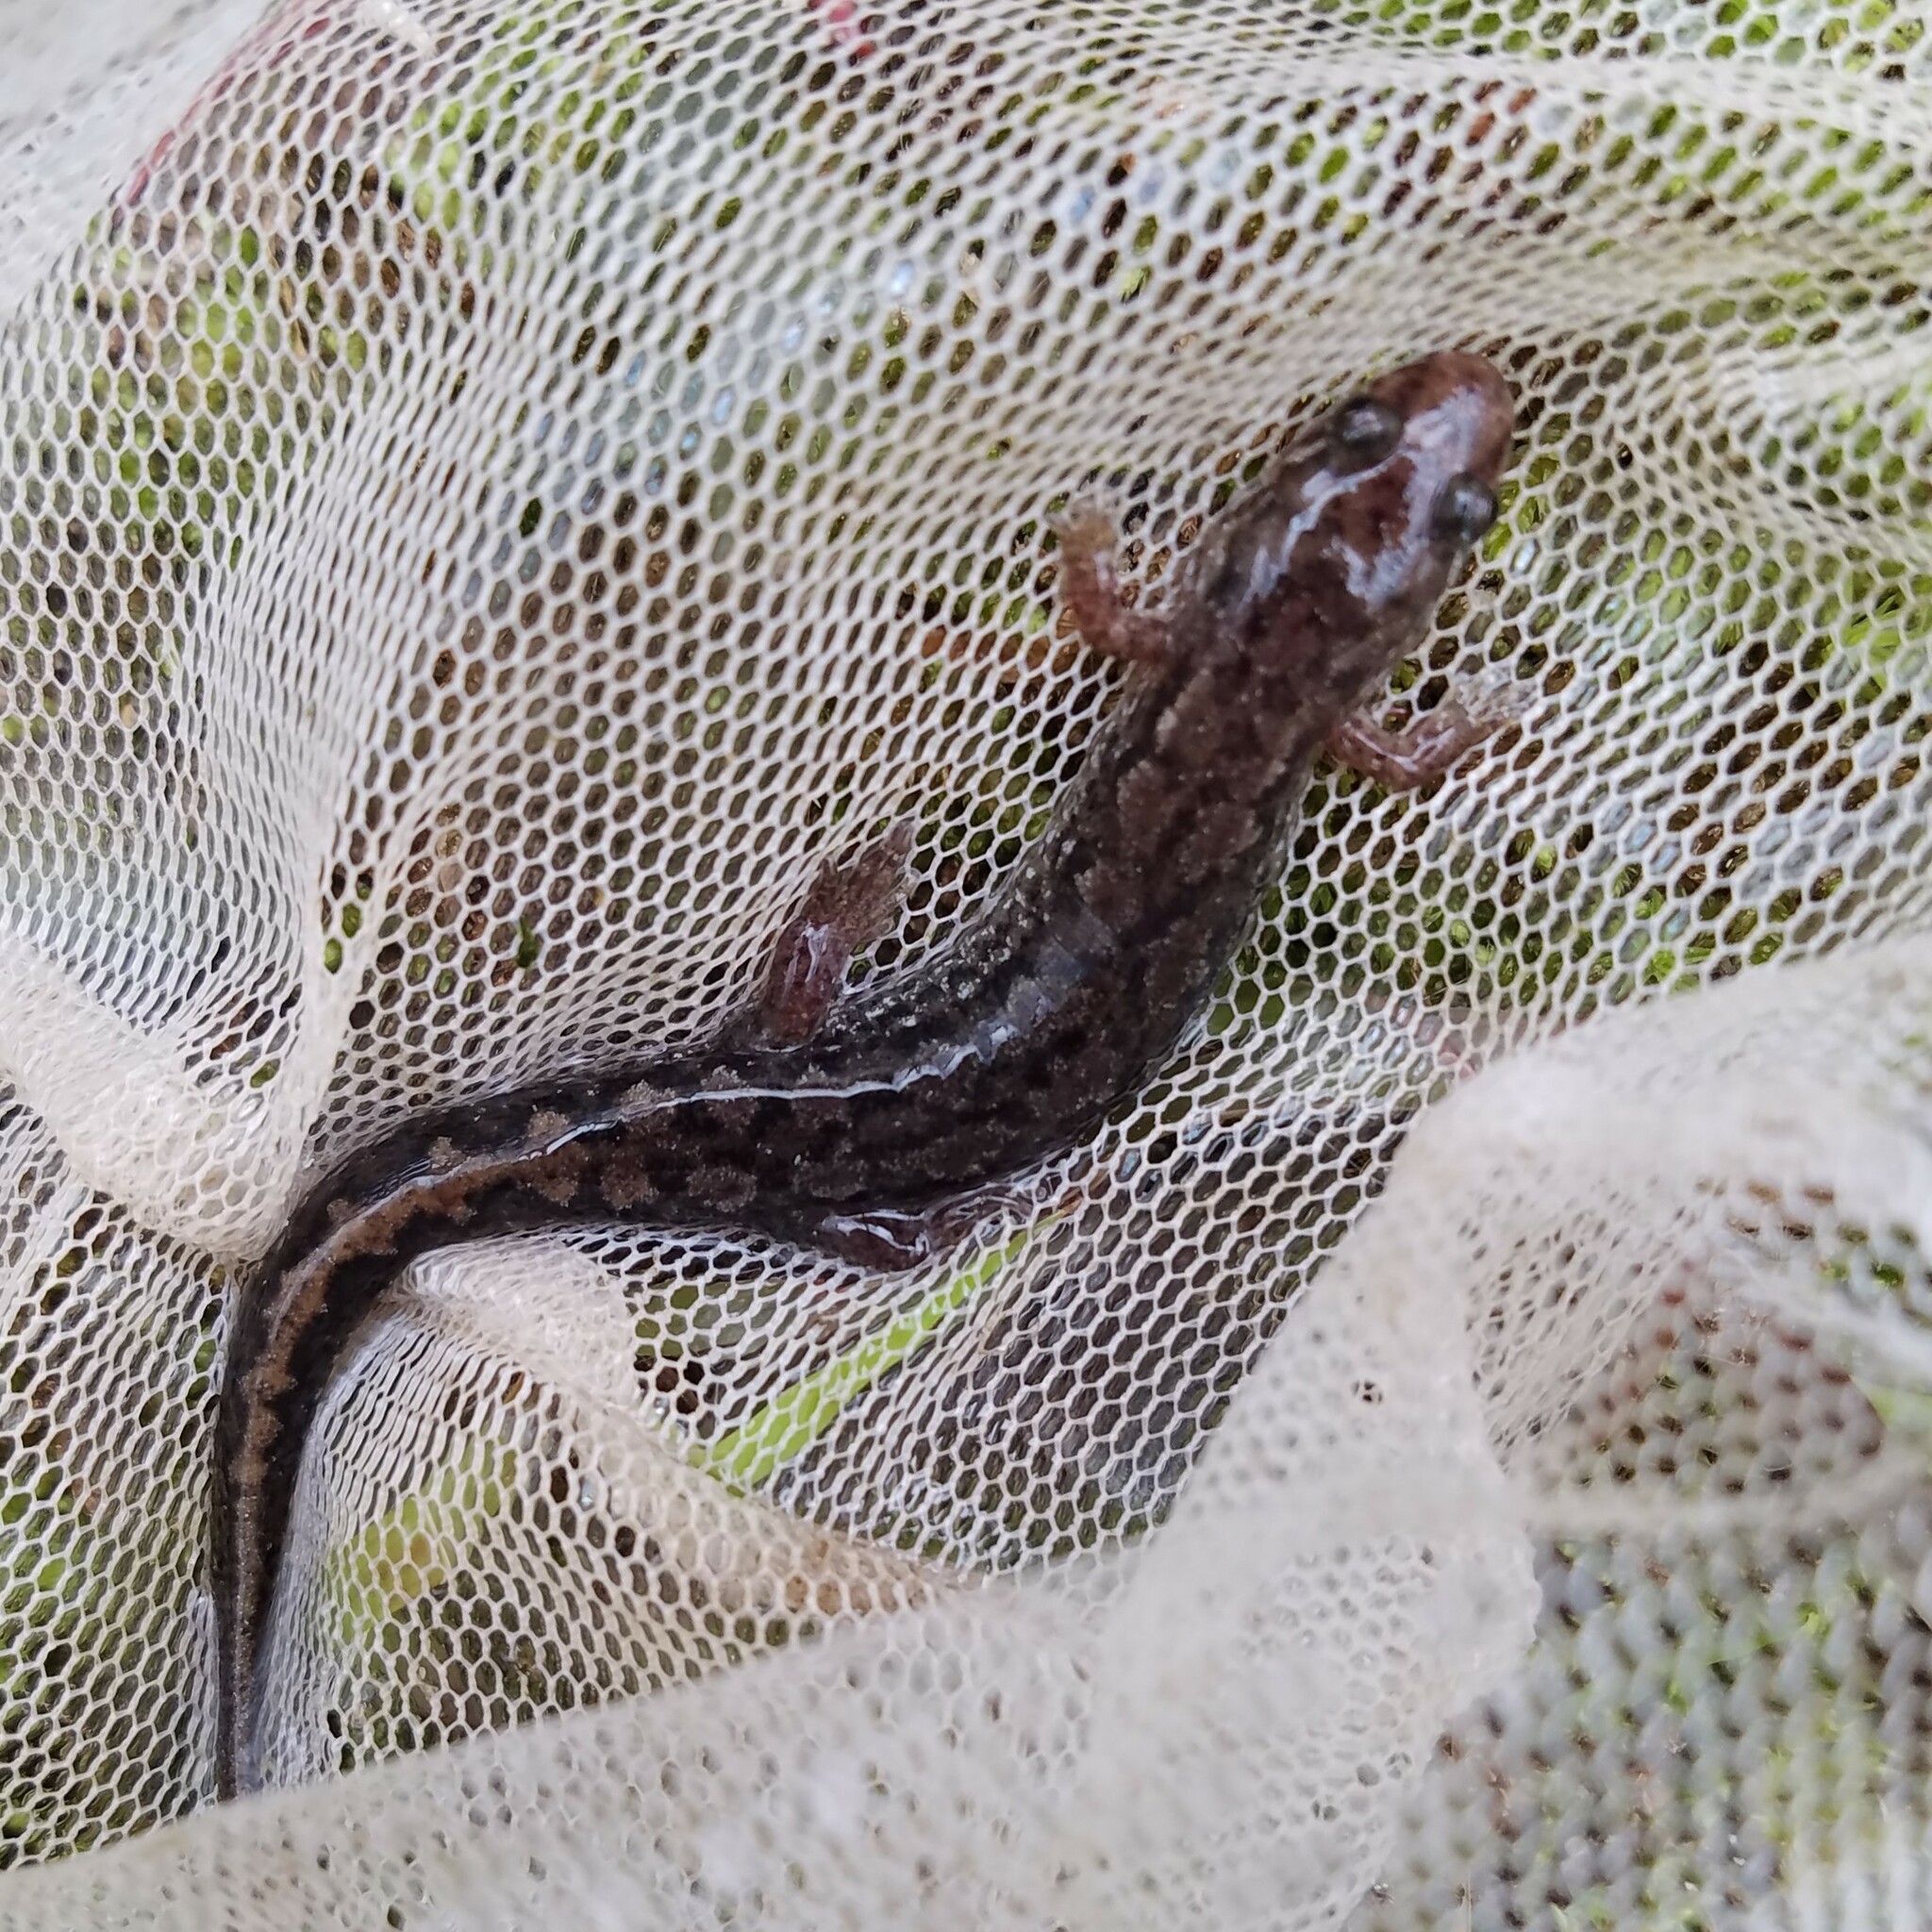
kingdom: Animalia
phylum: Chordata
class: Amphibia
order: Caudata
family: Plethodontidae
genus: Desmognathus
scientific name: Desmognathus conanti
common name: Spotted dusky salamander
